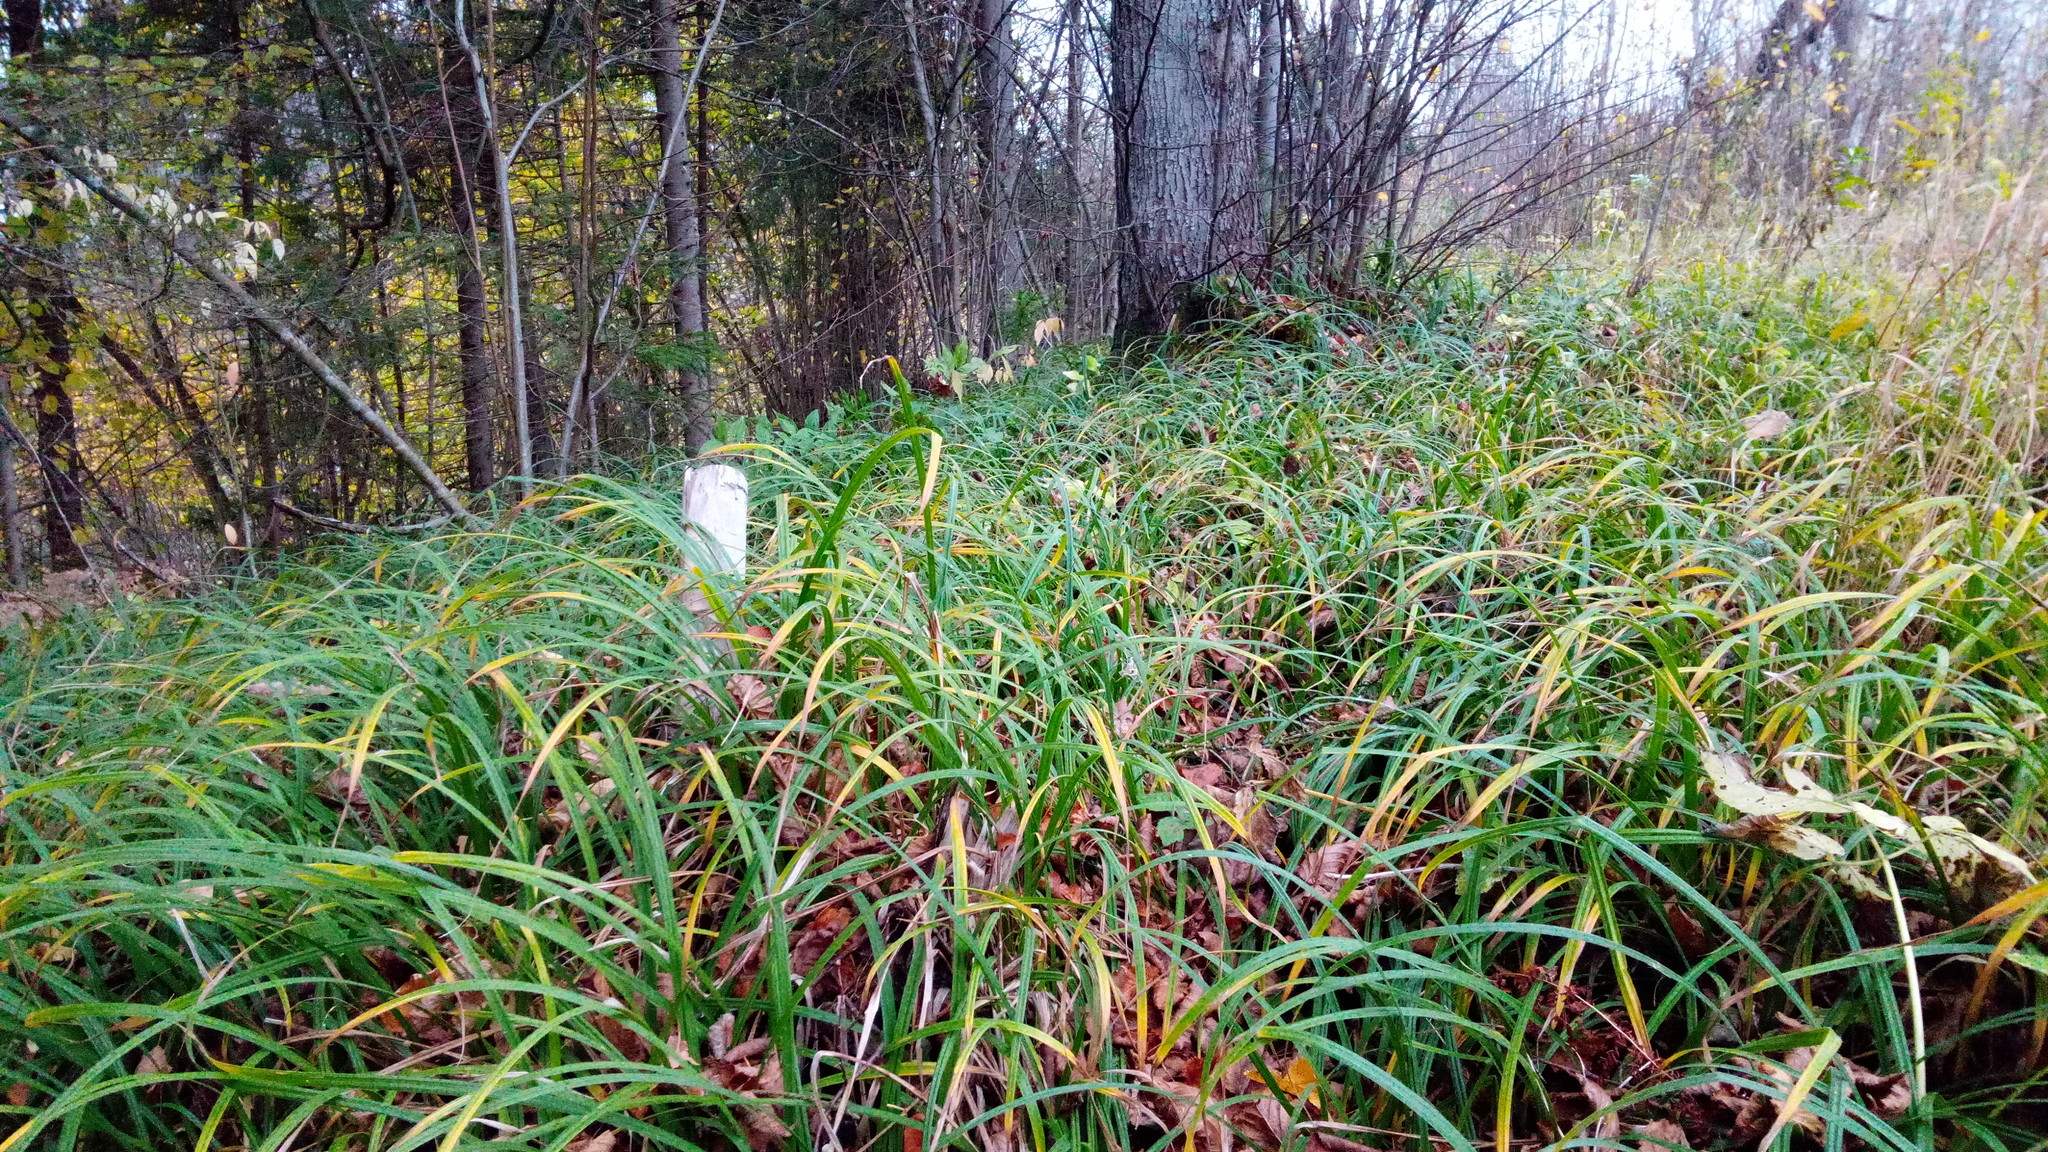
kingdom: Plantae
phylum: Tracheophyta
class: Liliopsida
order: Poales
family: Cyperaceae
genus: Carex
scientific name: Carex pilosa
